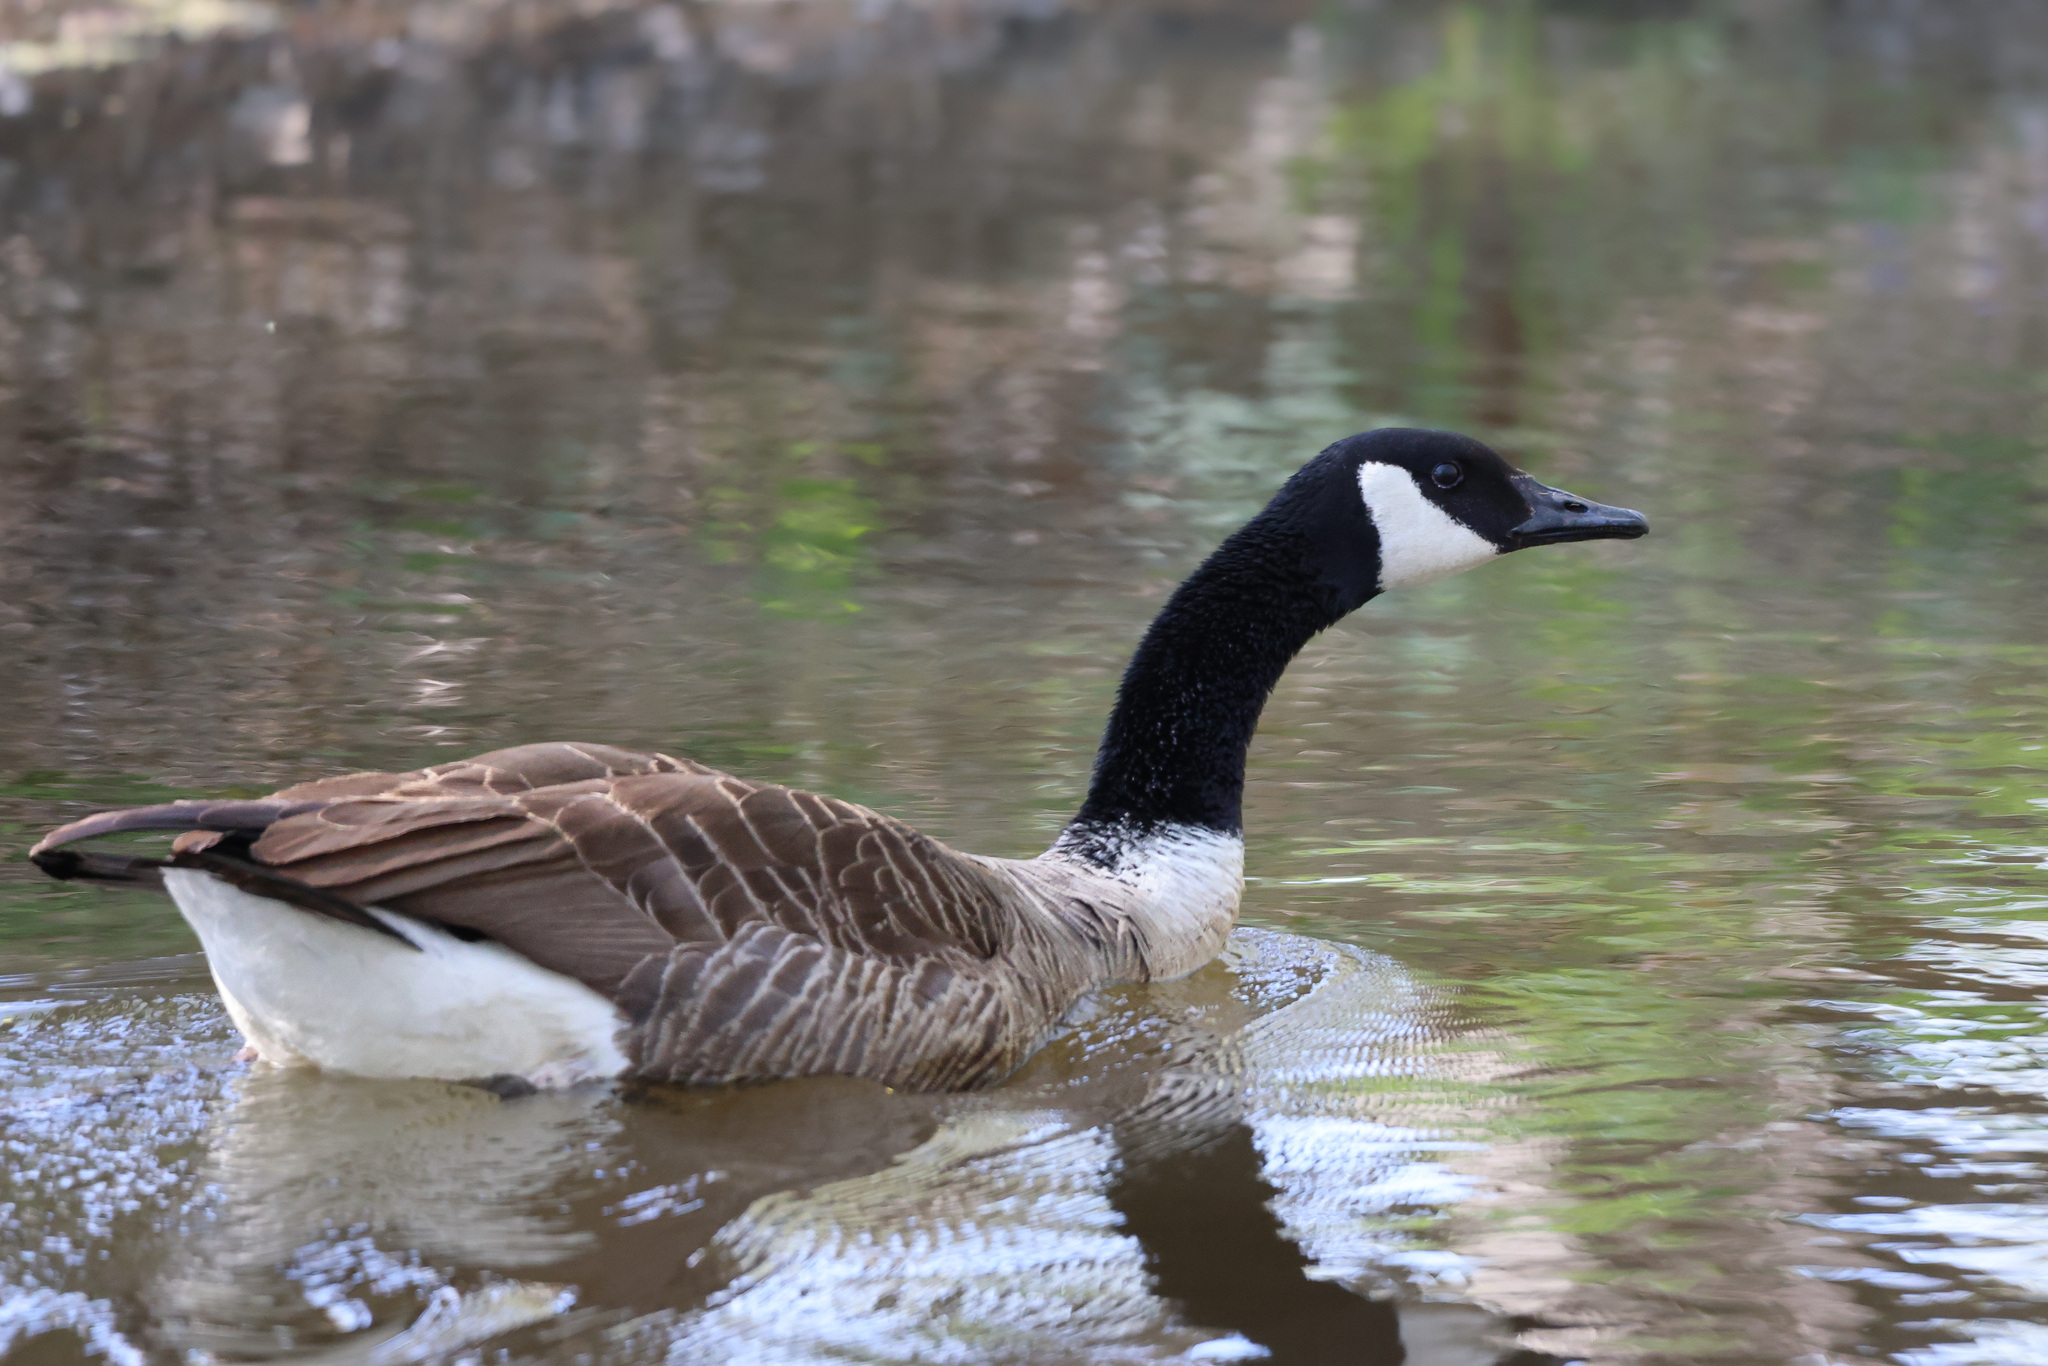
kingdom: Animalia
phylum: Chordata
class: Aves
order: Anseriformes
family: Anatidae
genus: Branta
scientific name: Branta canadensis
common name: Canada goose
